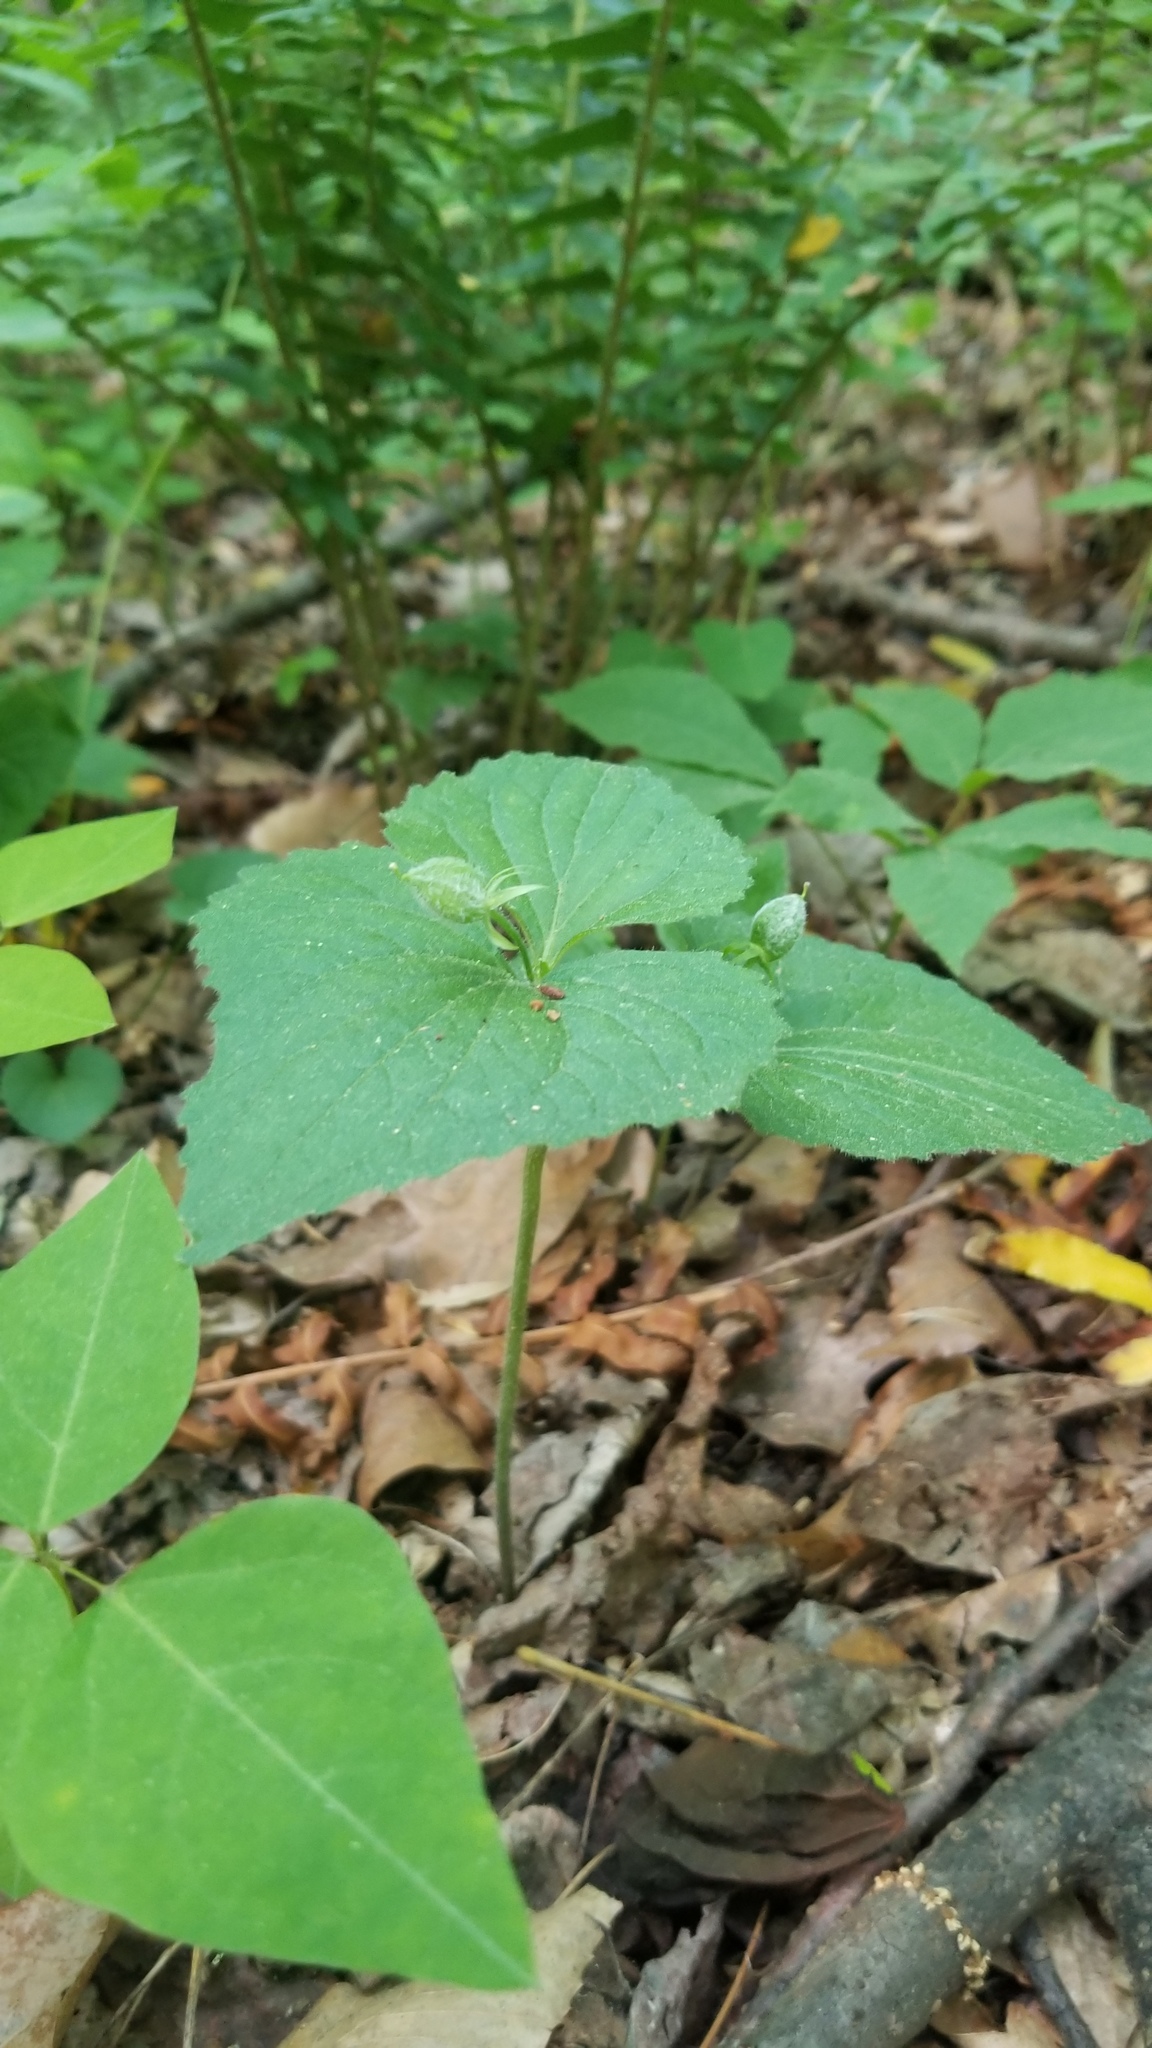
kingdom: Plantae
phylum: Tracheophyta
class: Magnoliopsida
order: Malpighiales
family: Violaceae
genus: Viola
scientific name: Viola pubescens
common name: Yellow forest violet
